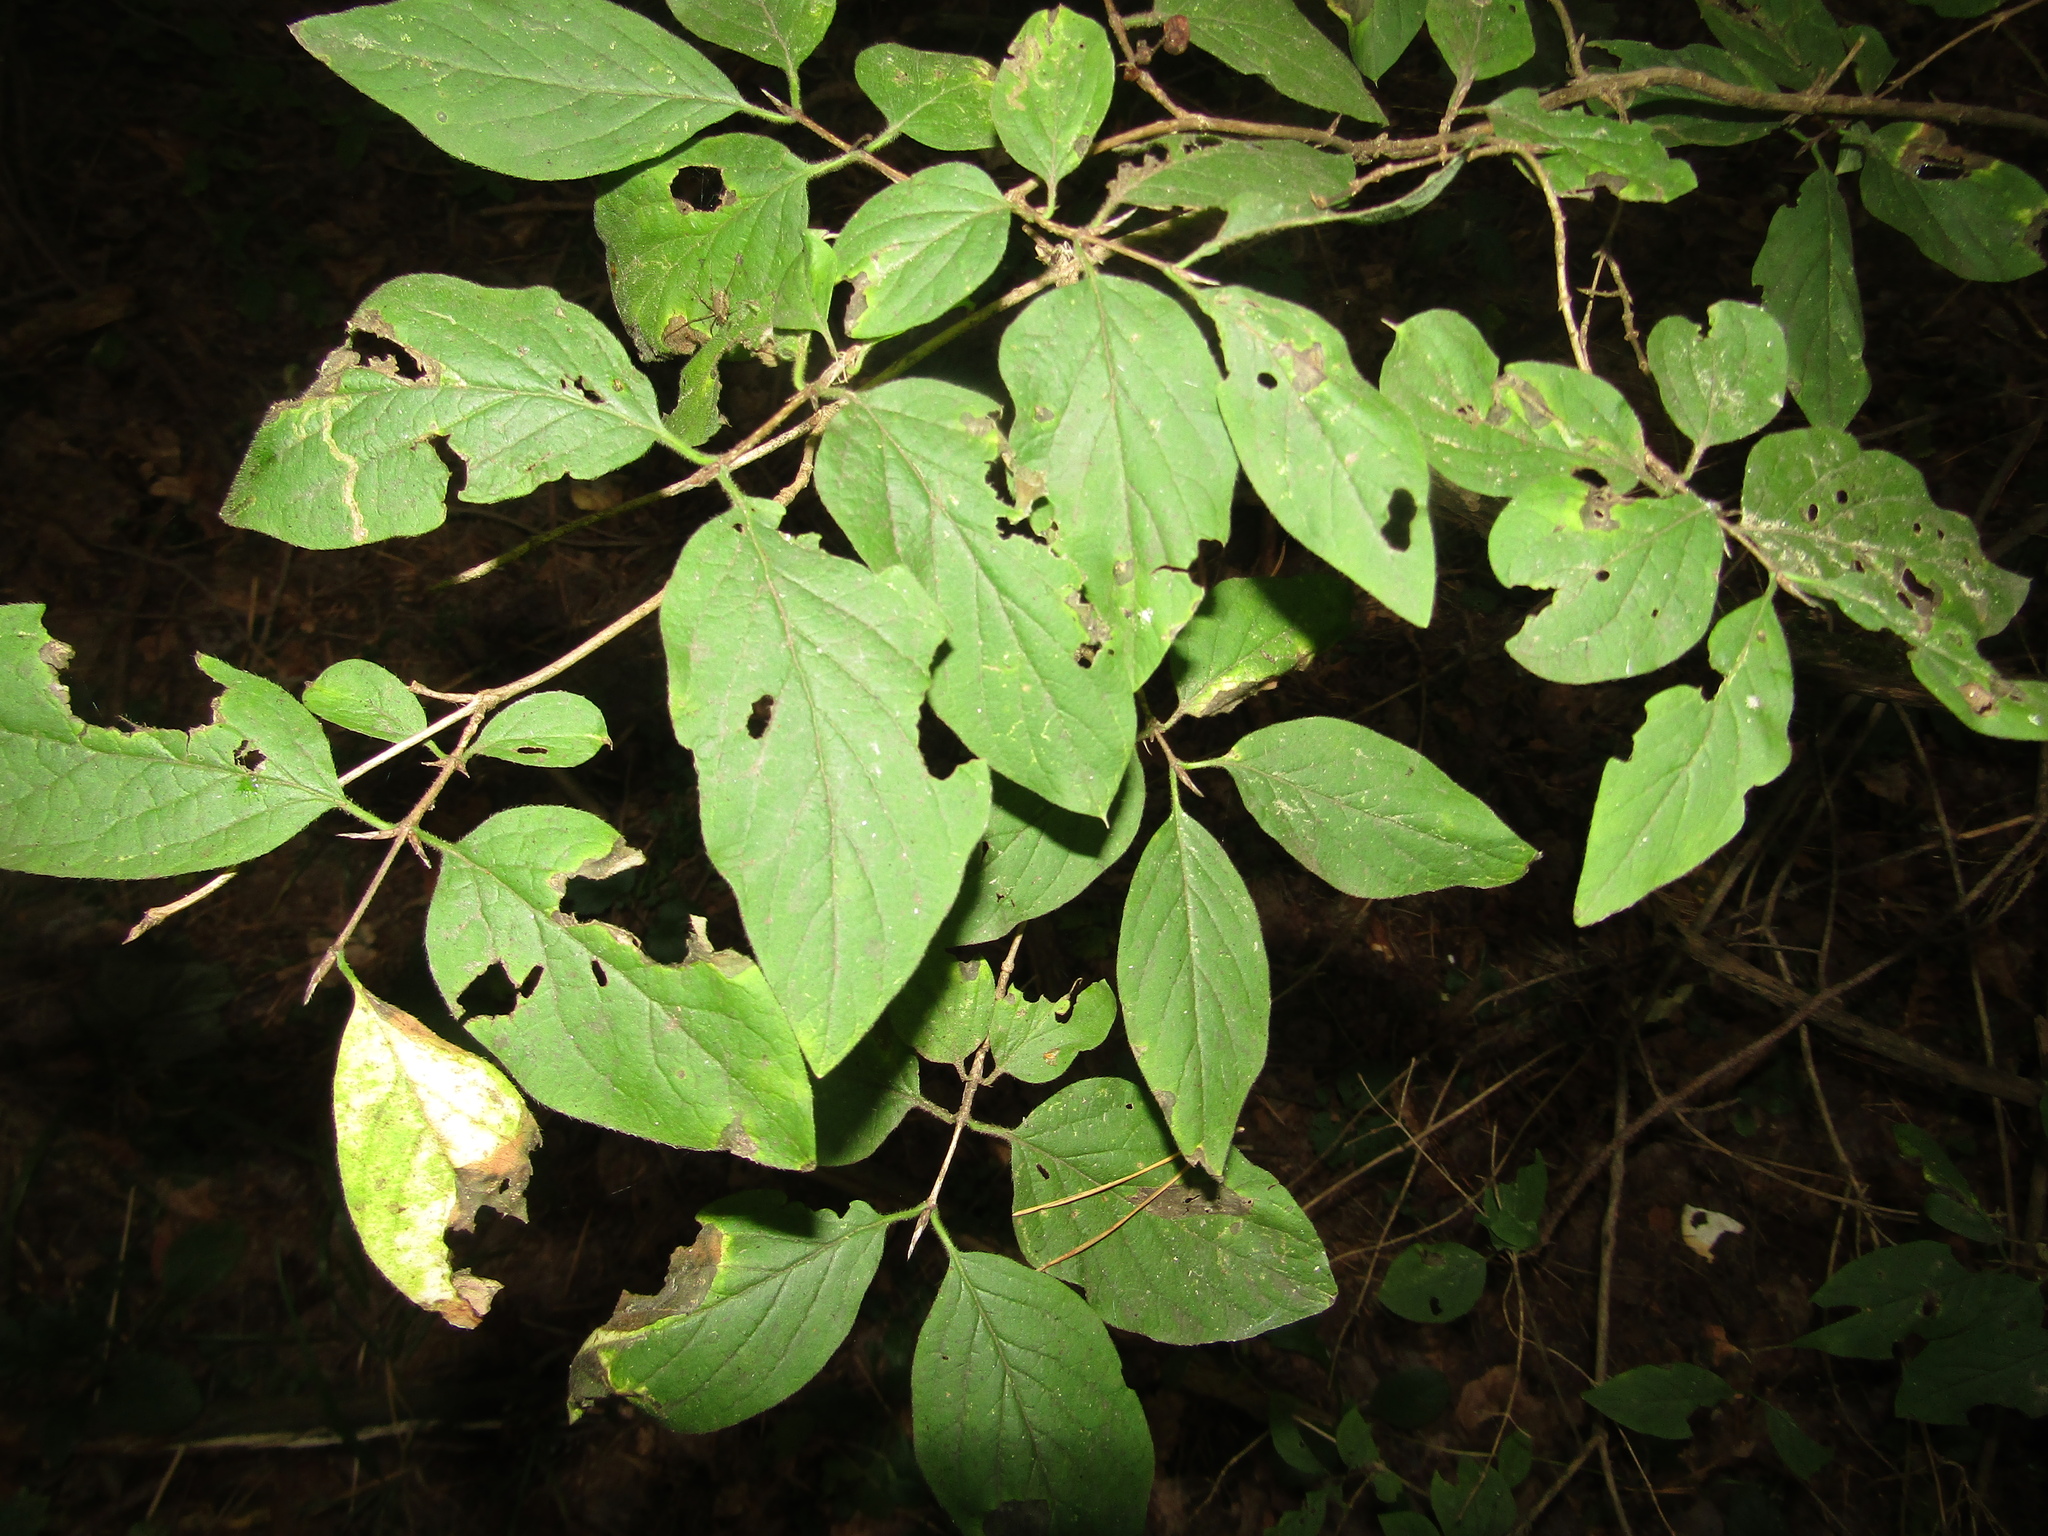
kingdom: Plantae
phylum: Tracheophyta
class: Magnoliopsida
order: Dipsacales
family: Caprifoliaceae
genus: Lonicera
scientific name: Lonicera xylosteum
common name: Fly honeysuckle
